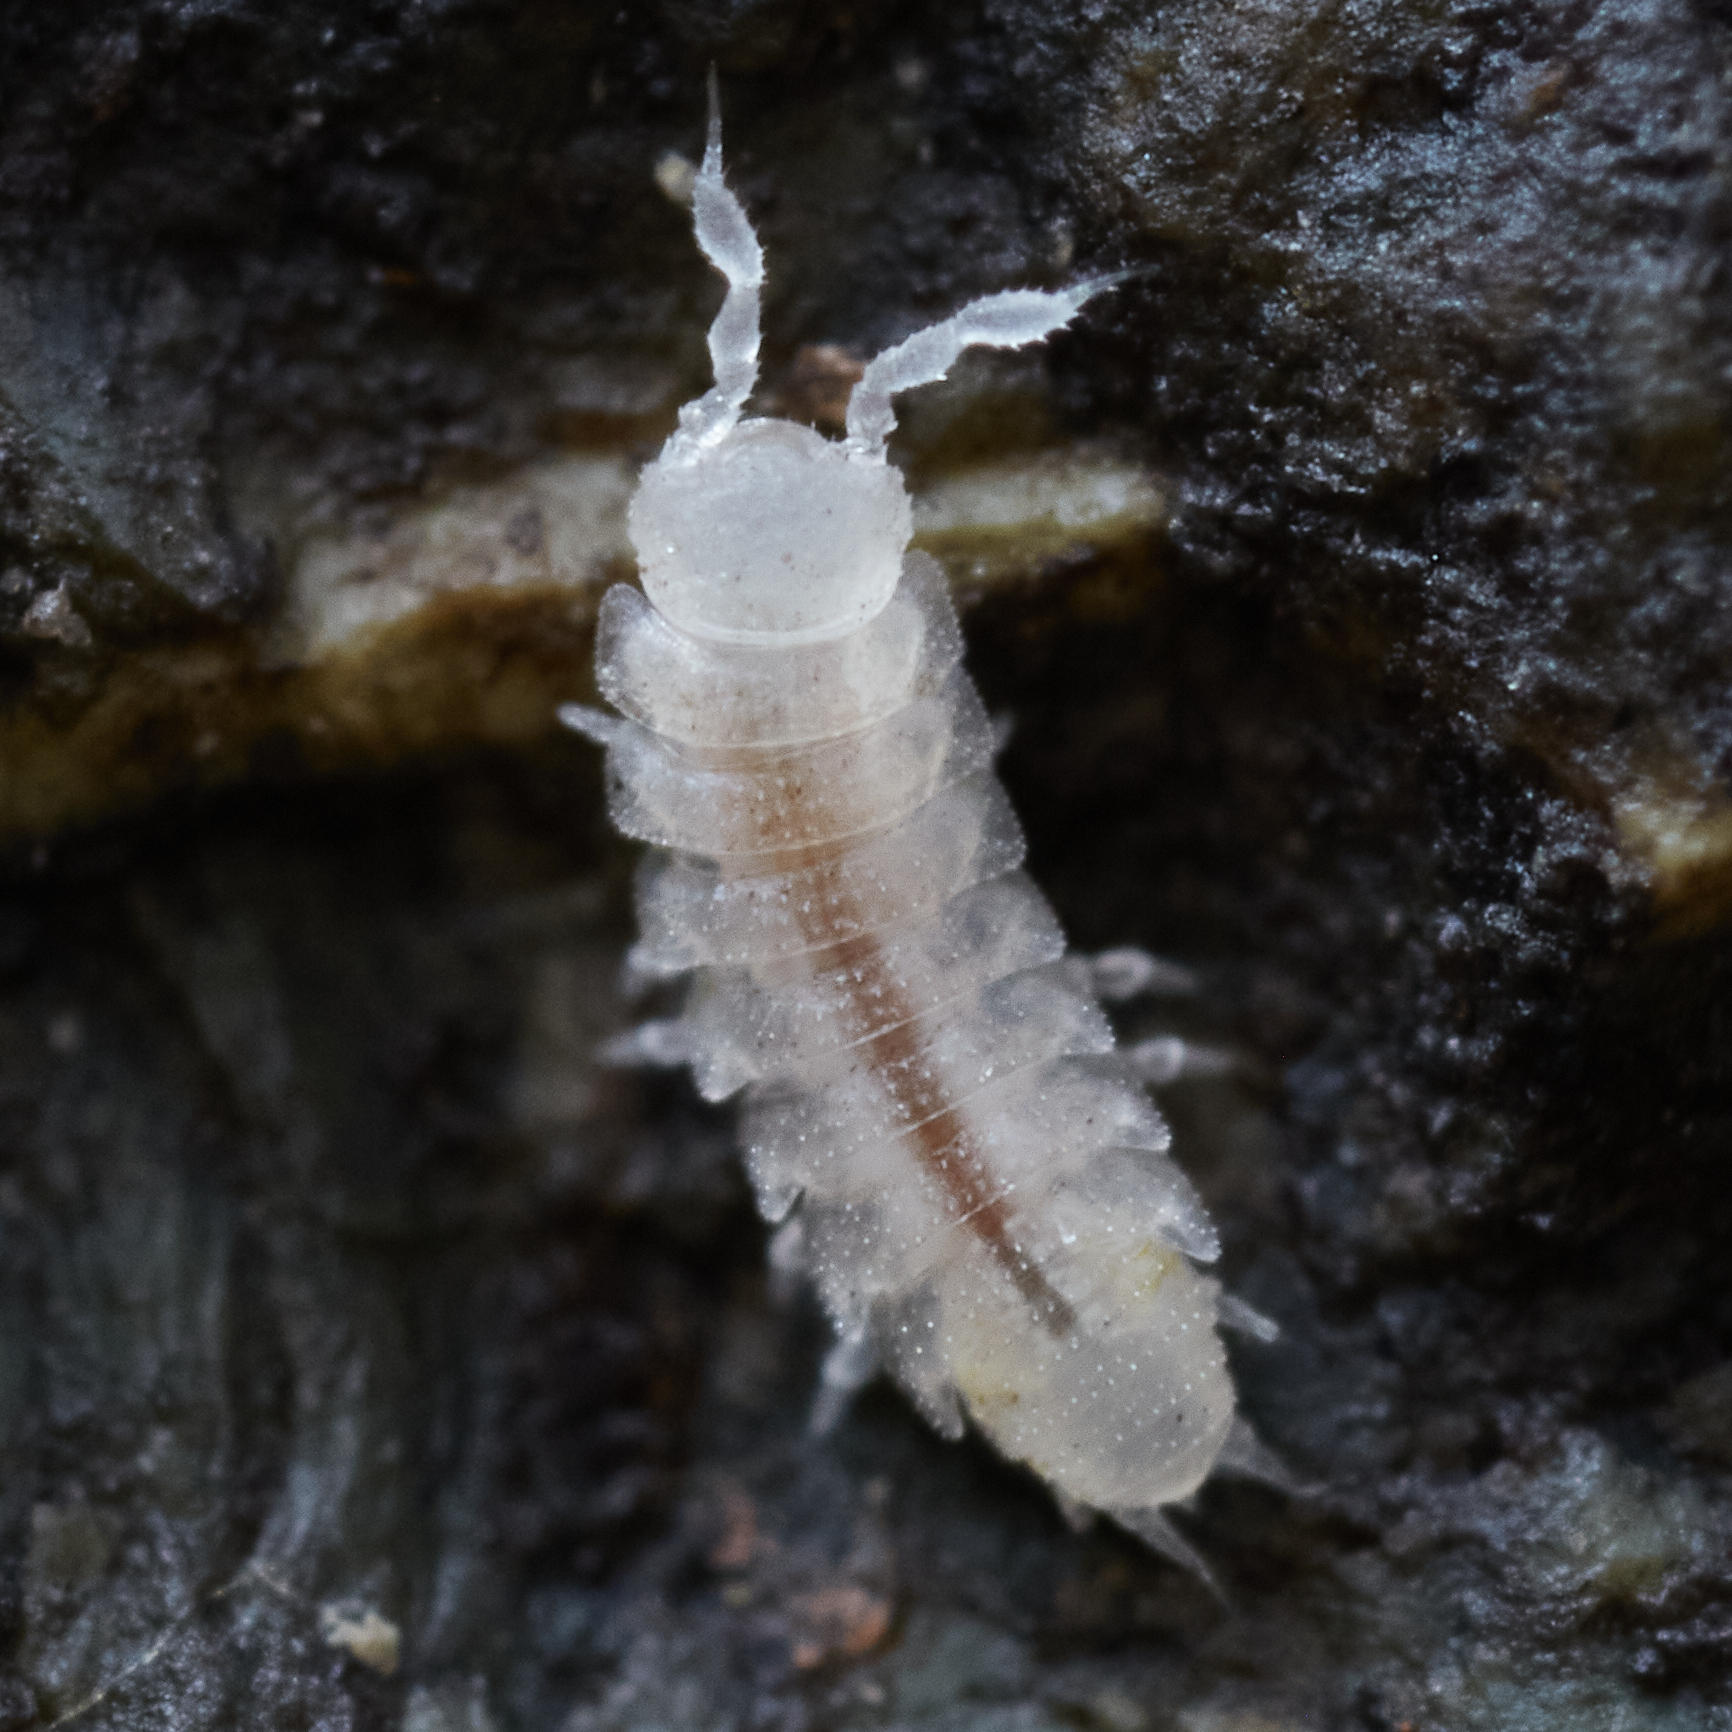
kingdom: Animalia
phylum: Arthropoda
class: Malacostraca
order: Isopoda
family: Trichoniscidae
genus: Brackenridgia
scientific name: Brackenridgia heroldi
